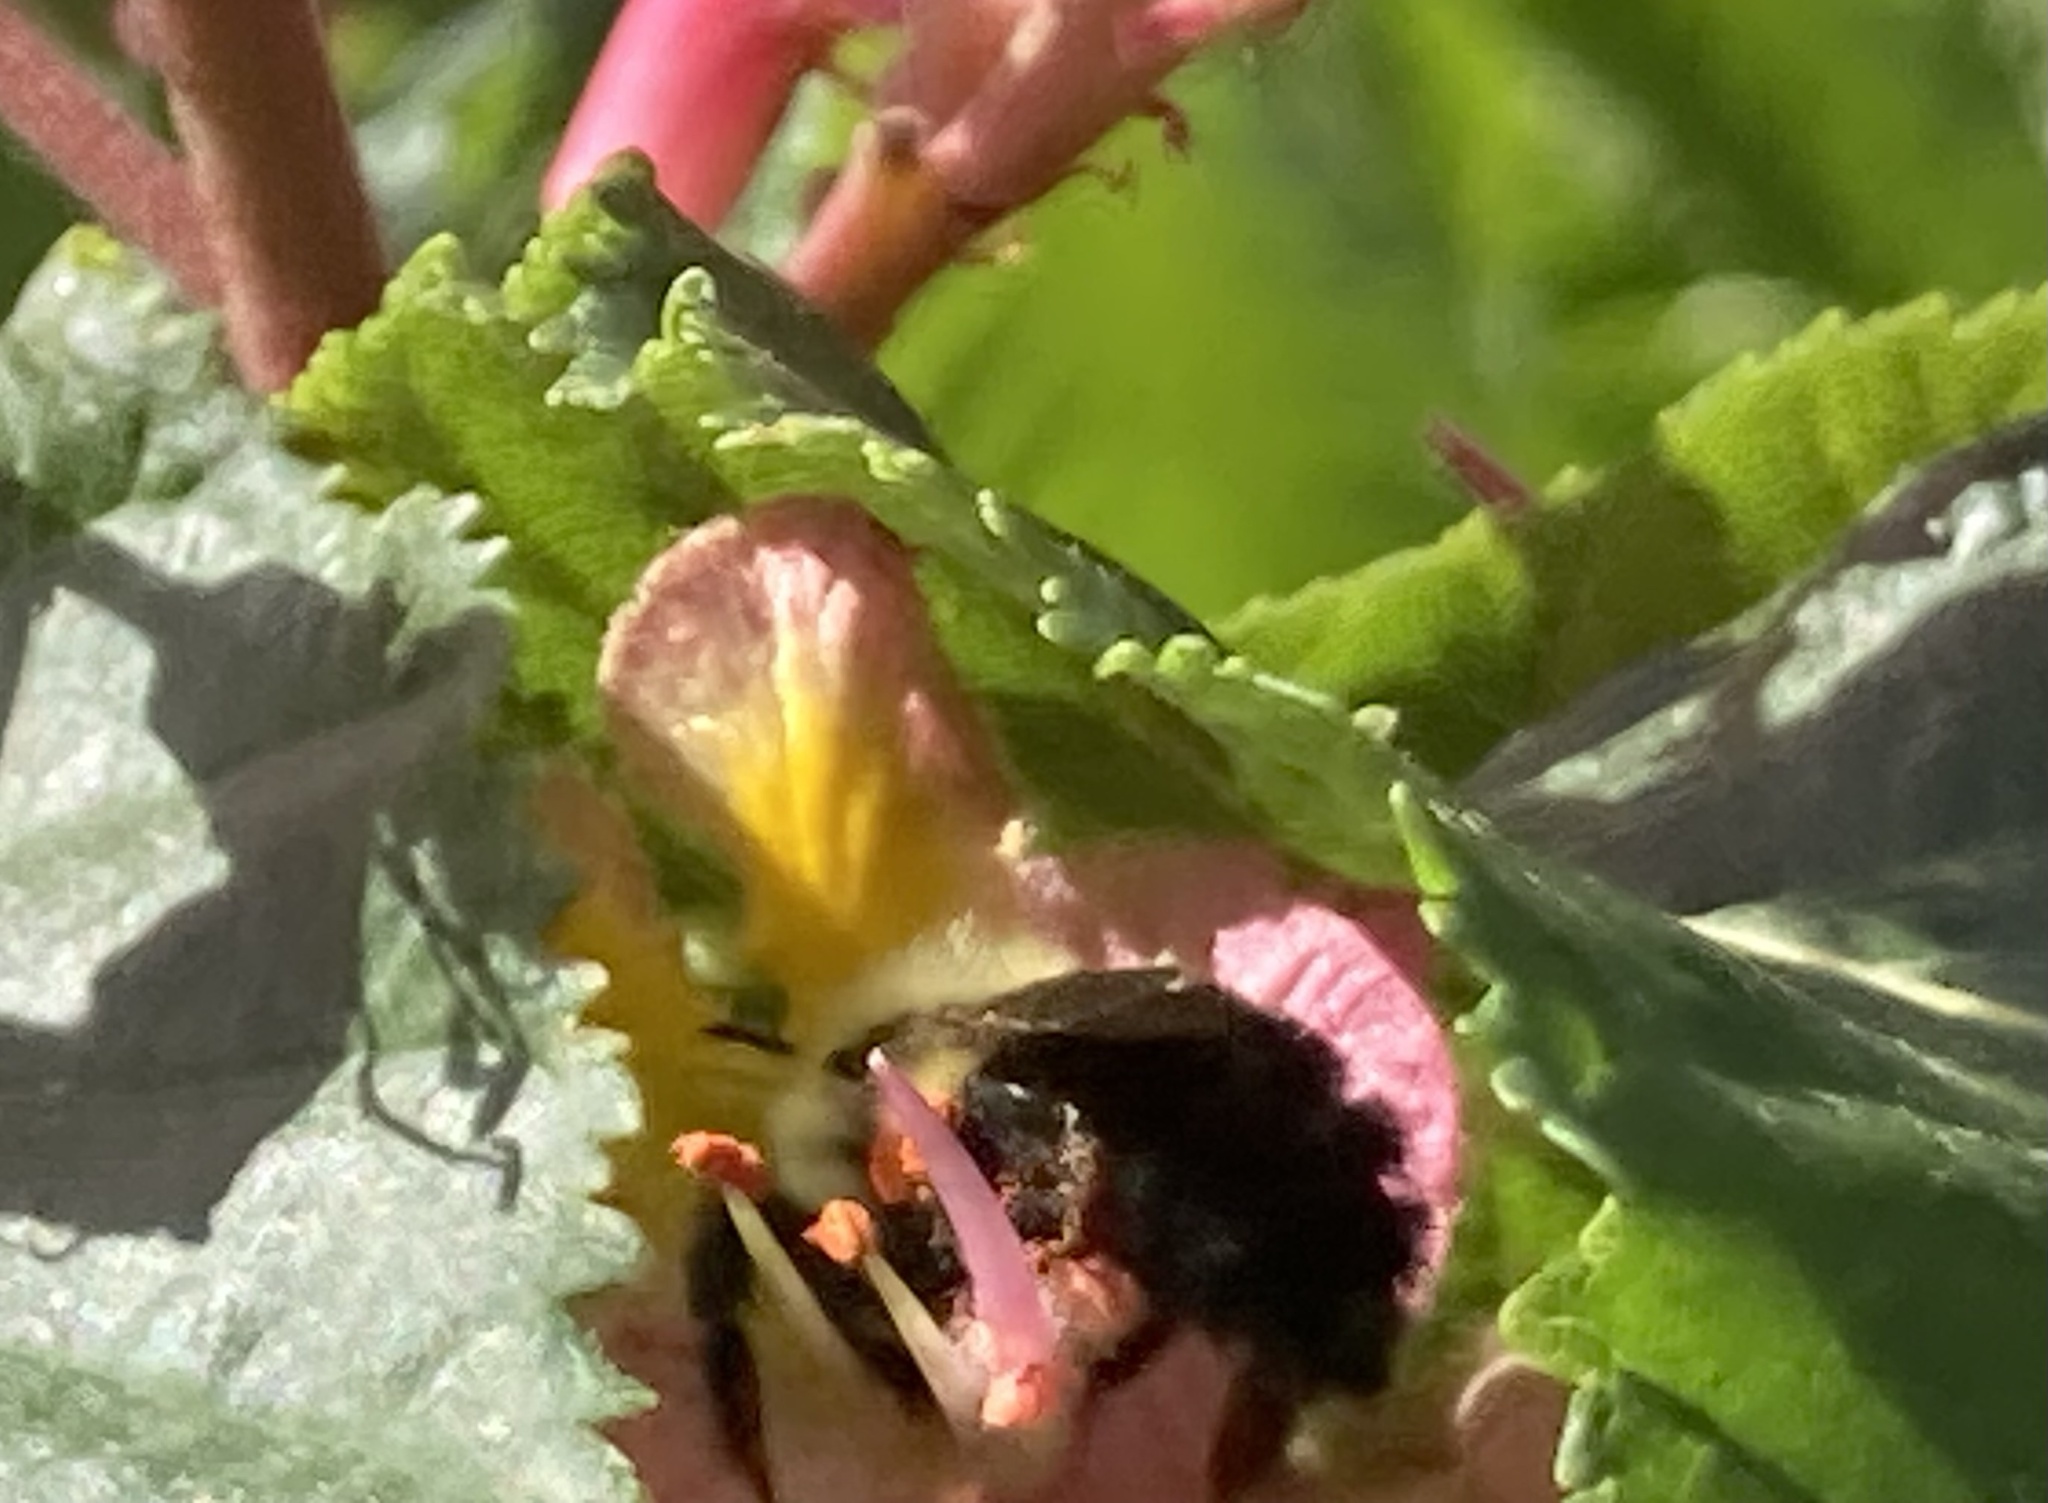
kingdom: Animalia
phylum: Arthropoda
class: Insecta
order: Hymenoptera
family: Apidae
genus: Bombus
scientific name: Bombus impatiens
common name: Common eastern bumble bee
